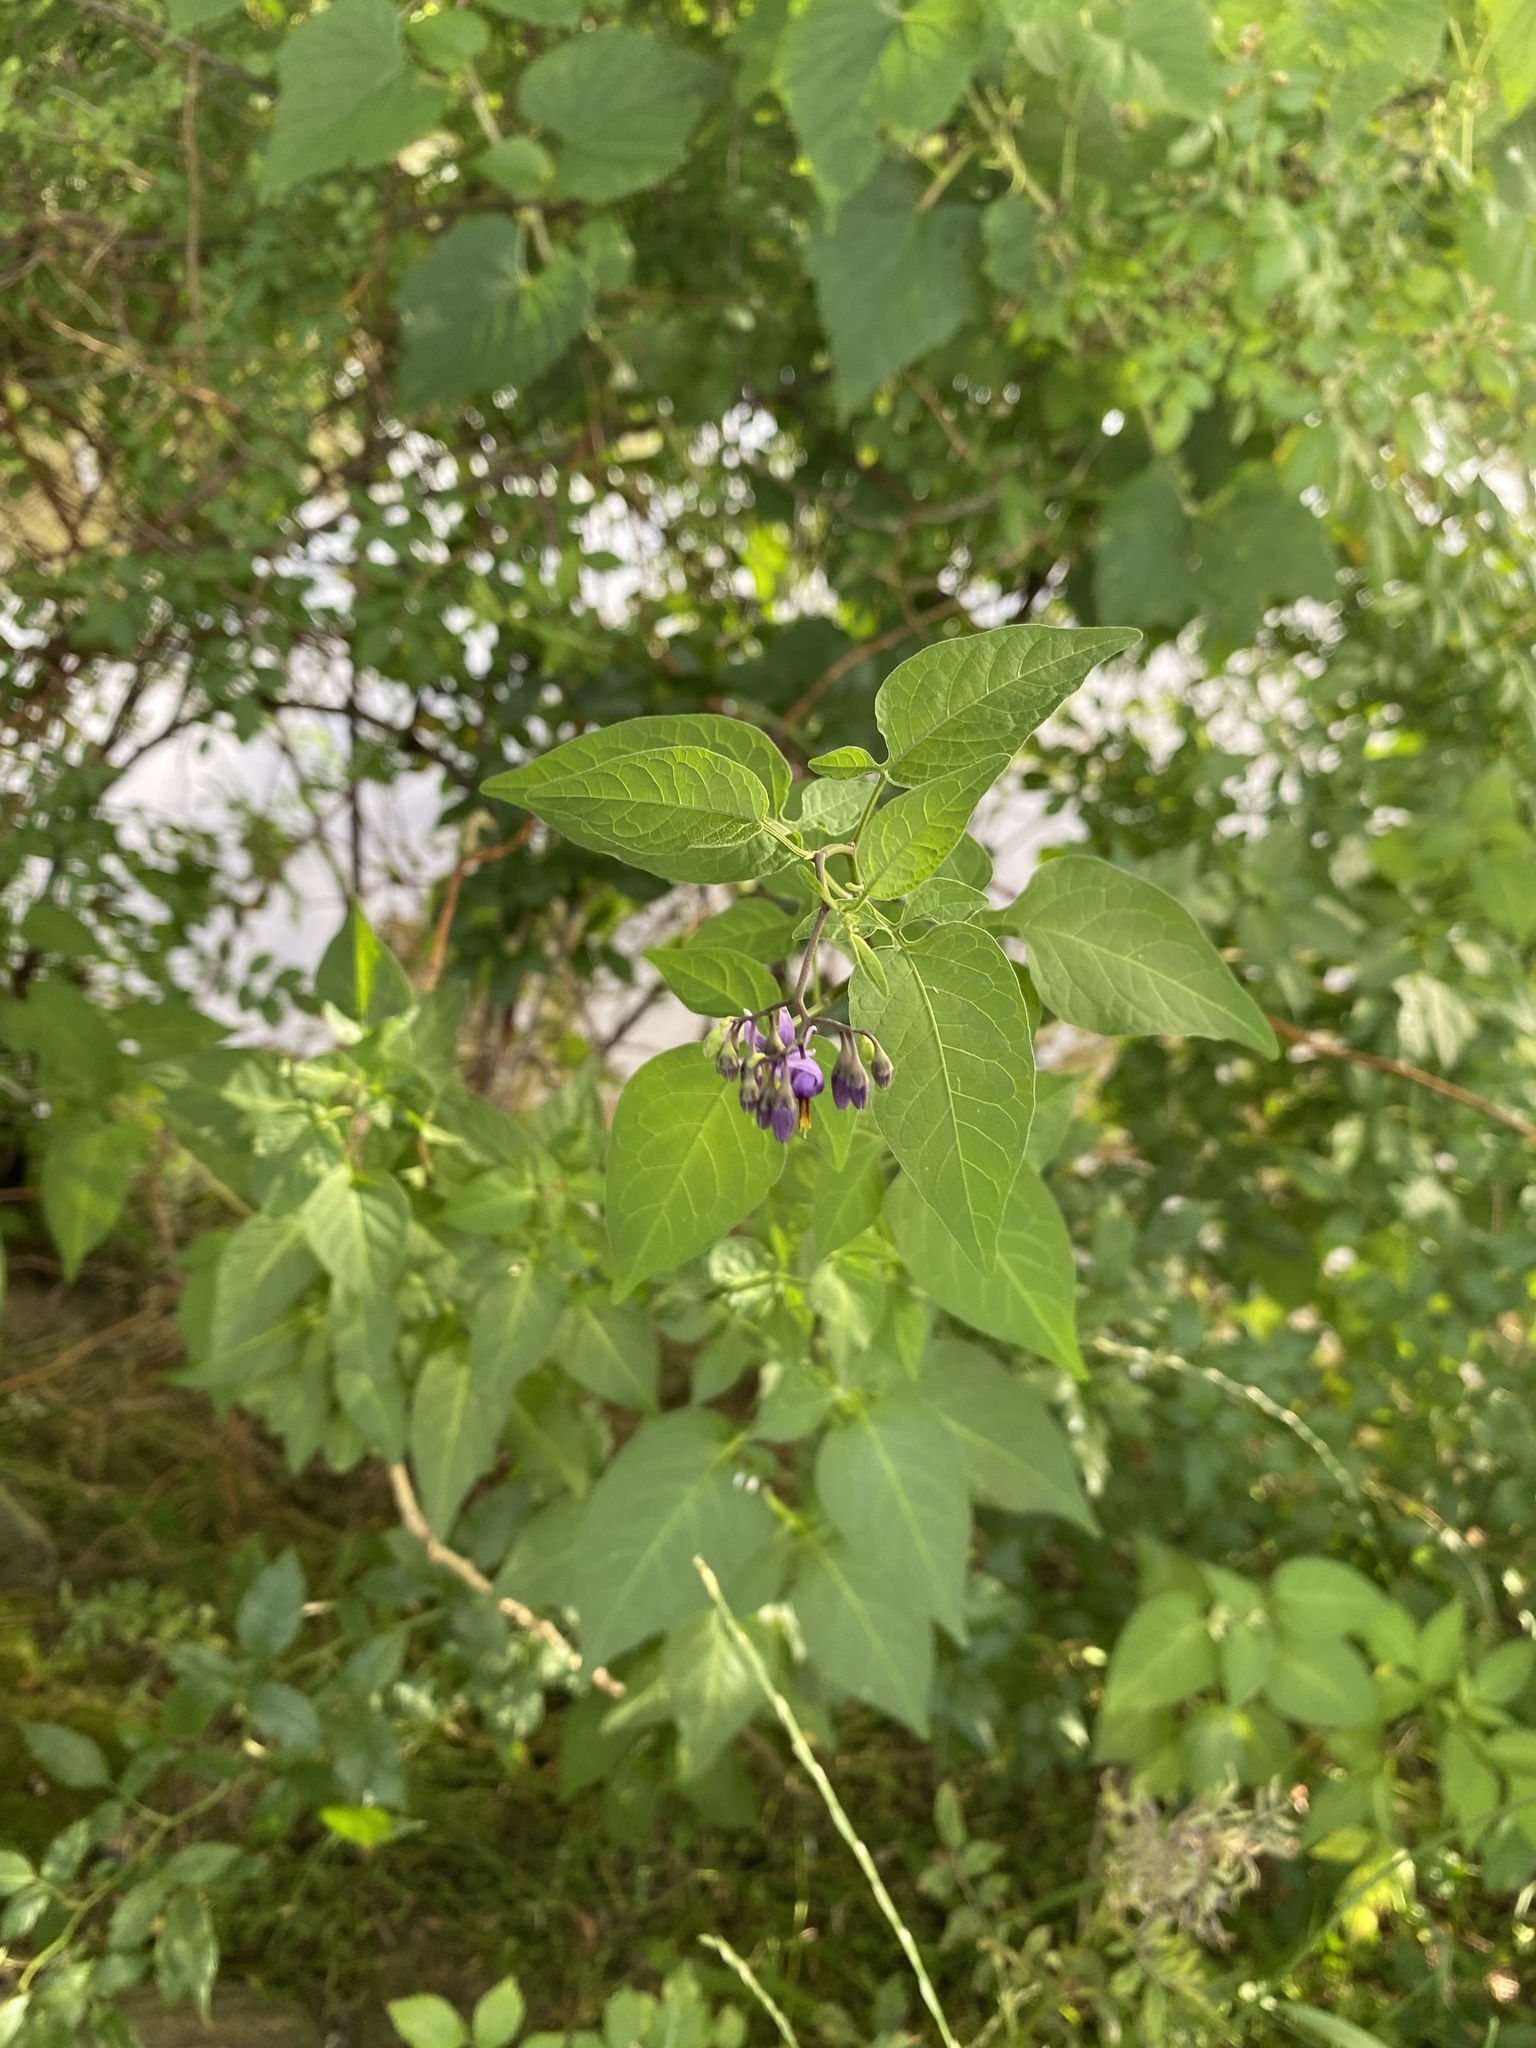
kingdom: Plantae
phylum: Tracheophyta
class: Magnoliopsida
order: Solanales
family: Solanaceae
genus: Solanum
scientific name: Solanum dulcamara
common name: Climbing nightshade
